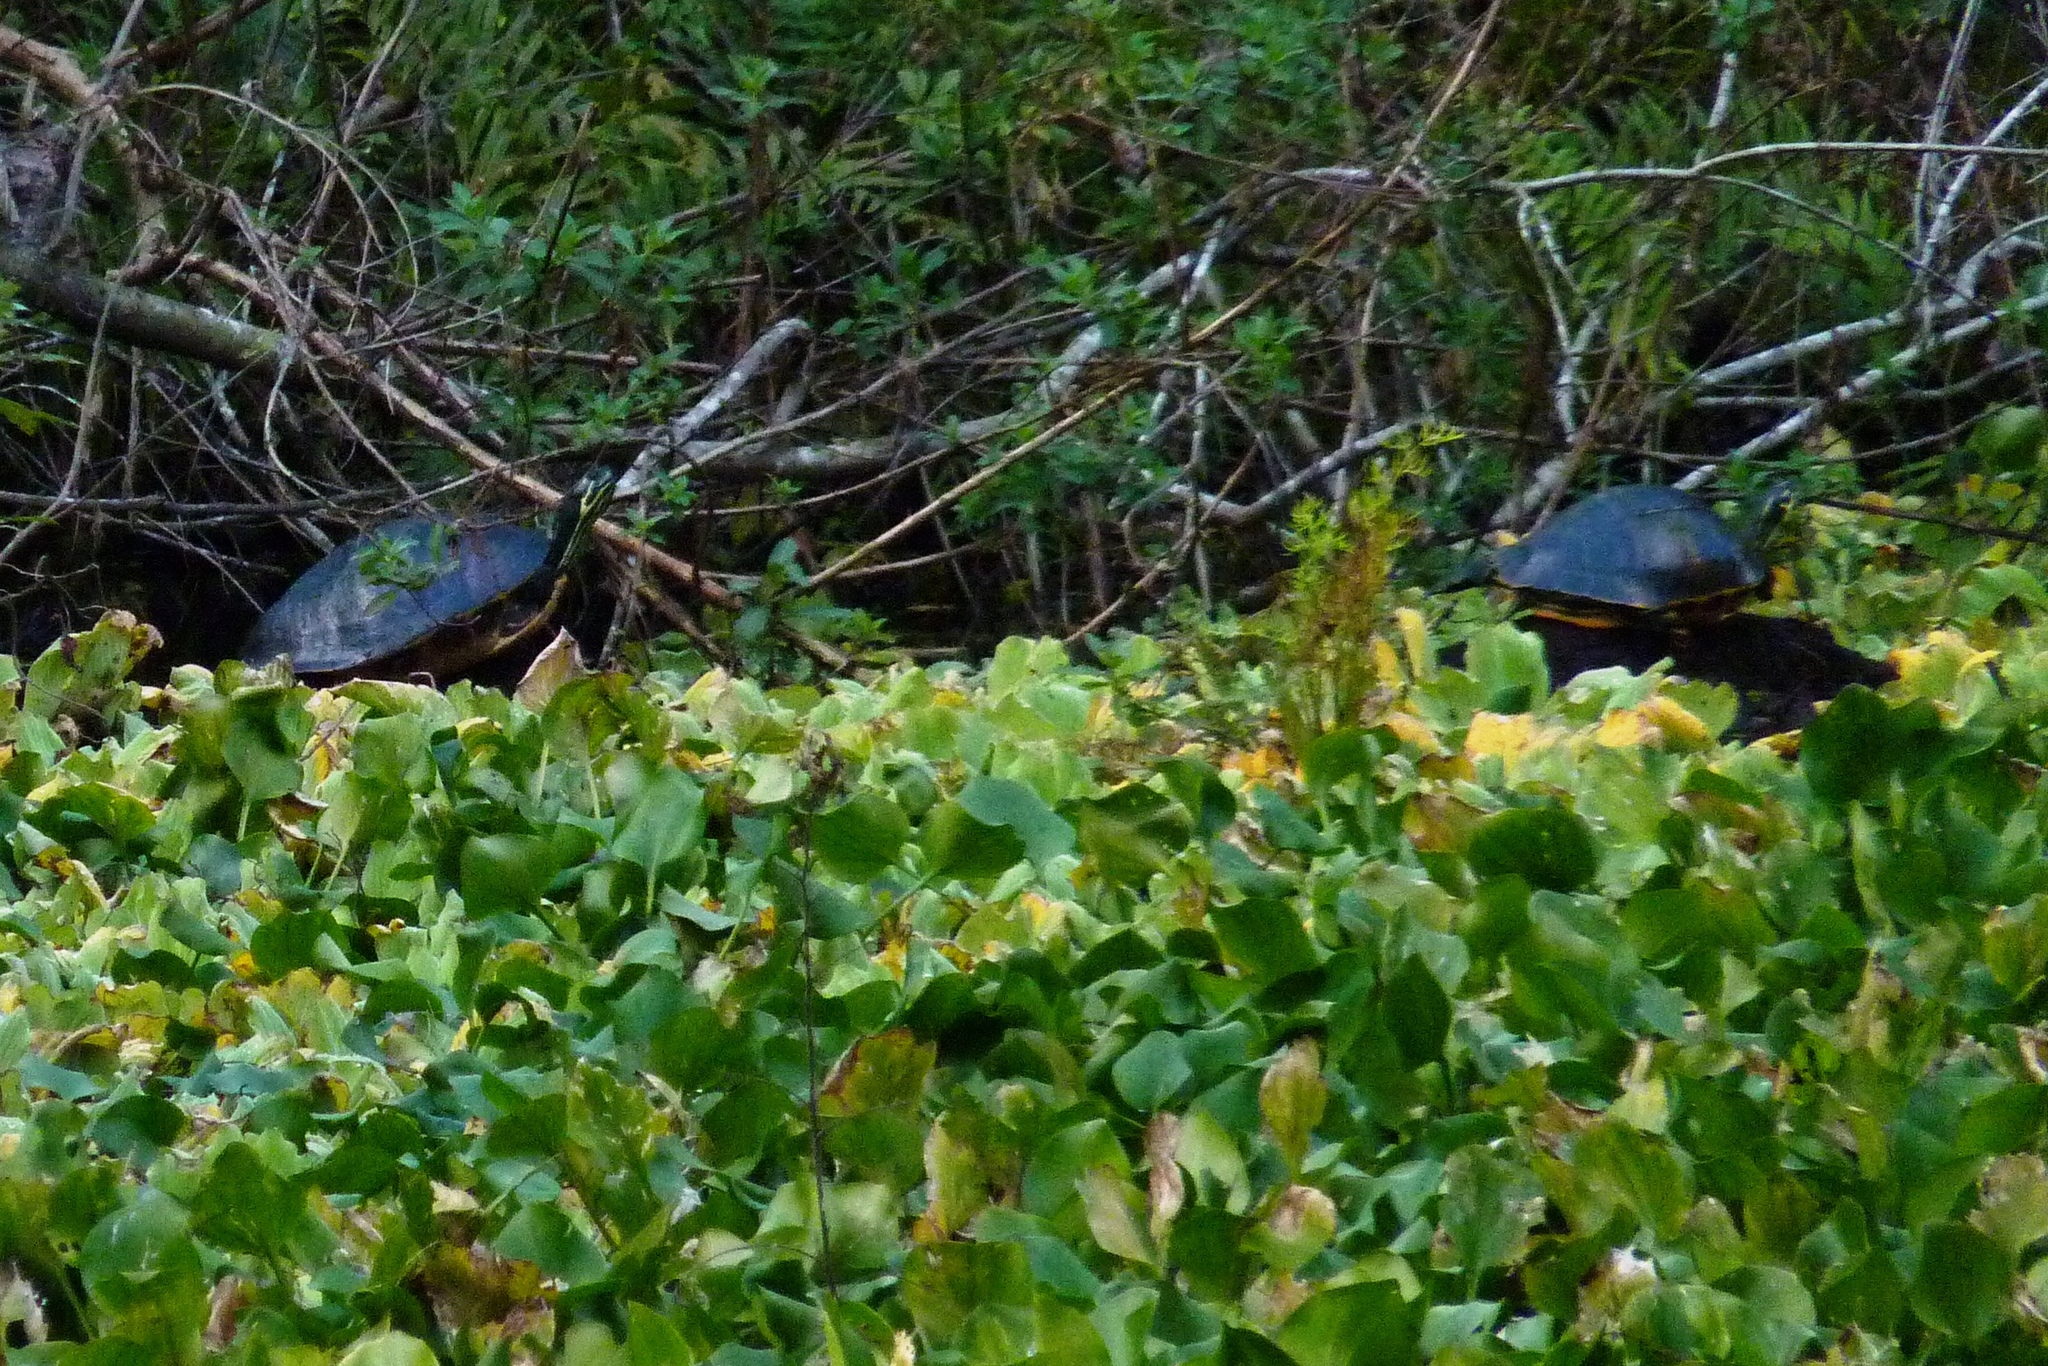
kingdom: Animalia
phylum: Chordata
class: Testudines
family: Emydidae
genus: Pseudemys
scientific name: Pseudemys nelsoni
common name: Florida red-bellied turtle
